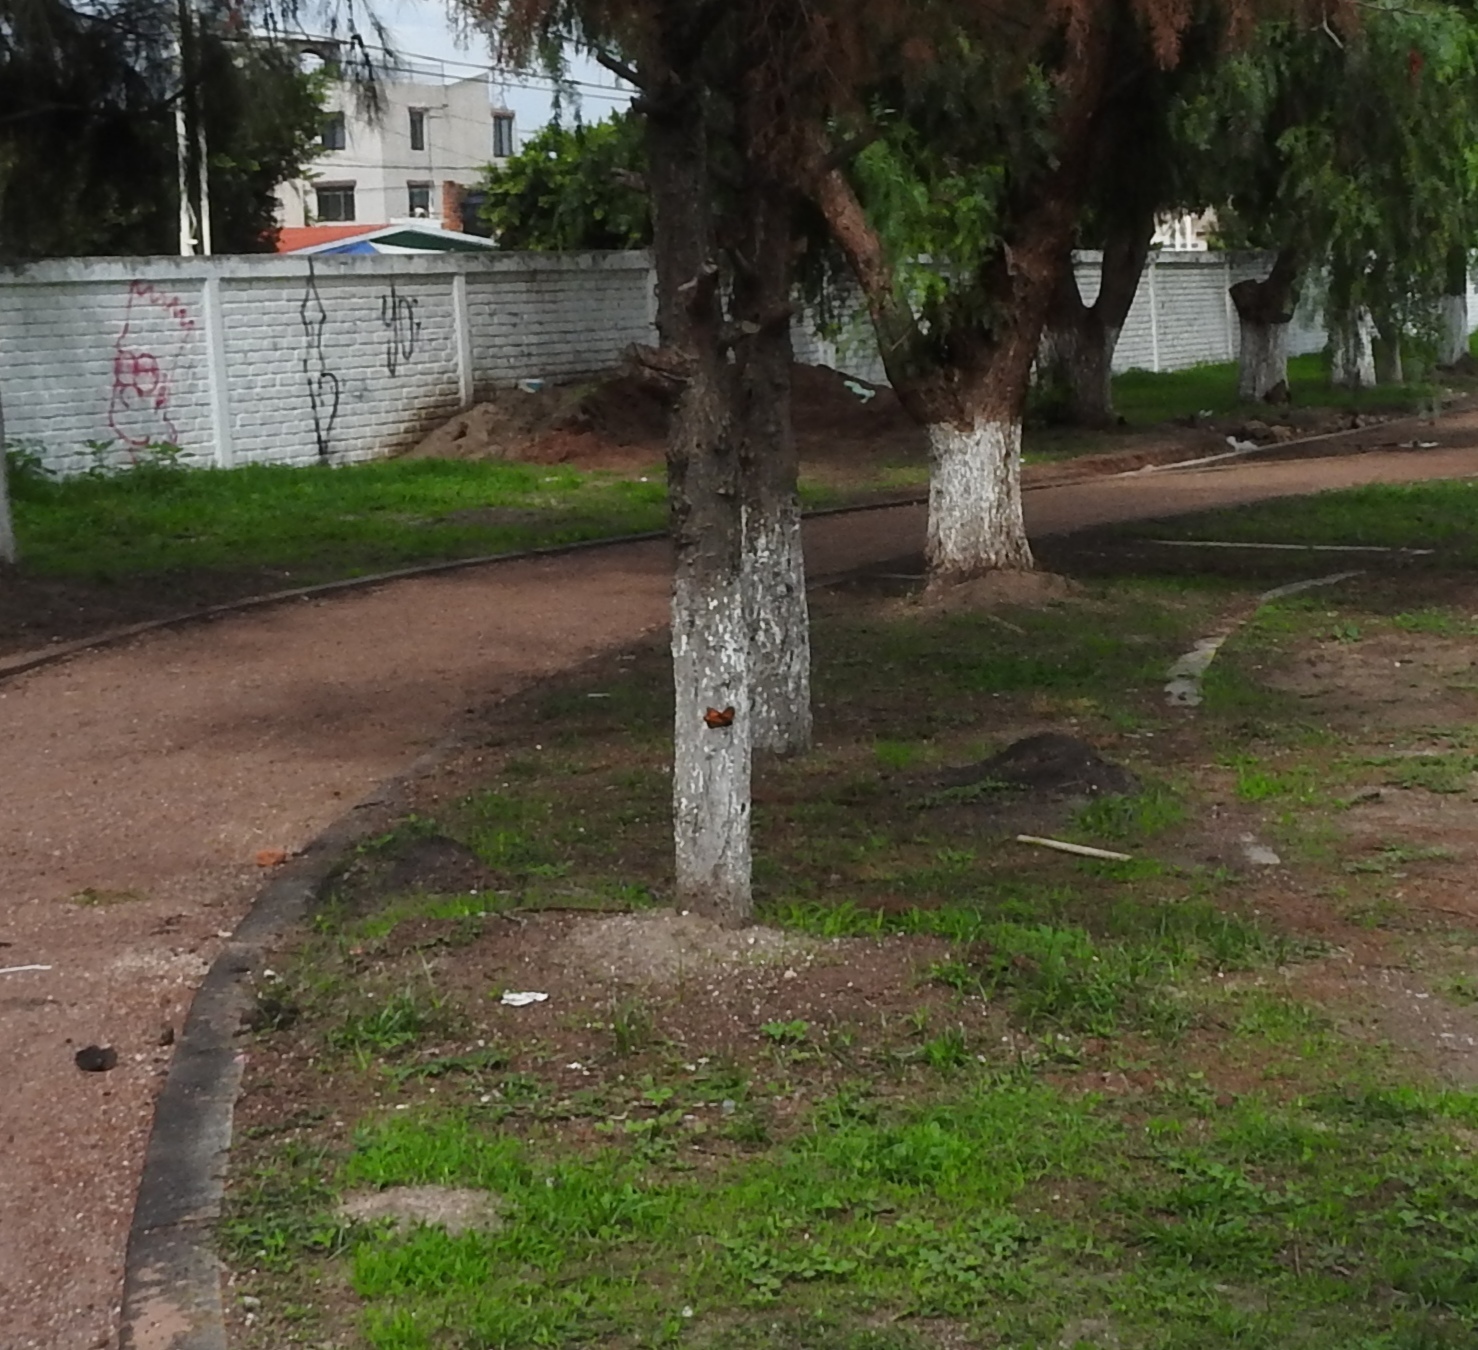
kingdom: Animalia
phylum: Arthropoda
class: Insecta
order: Lepidoptera
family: Nymphalidae
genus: Danaus
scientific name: Danaus plexippus
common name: Monarch
